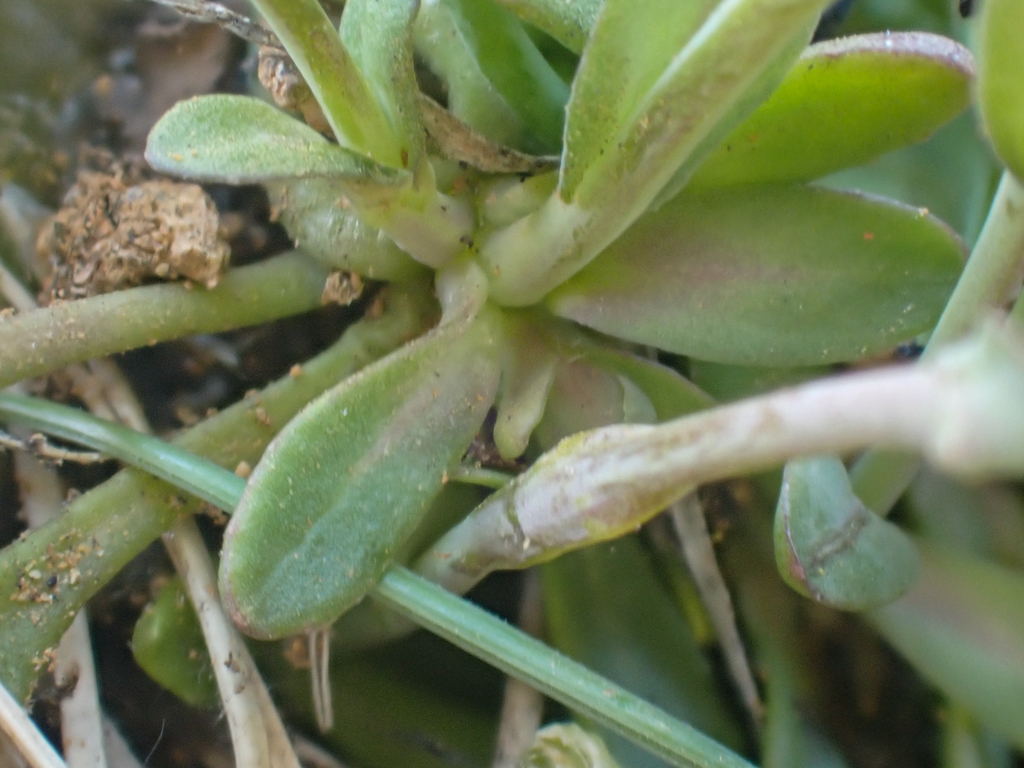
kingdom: Plantae
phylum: Tracheophyta
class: Magnoliopsida
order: Brassicales
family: Brassicaceae
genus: Noccaea
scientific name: Noccaea fendleri
